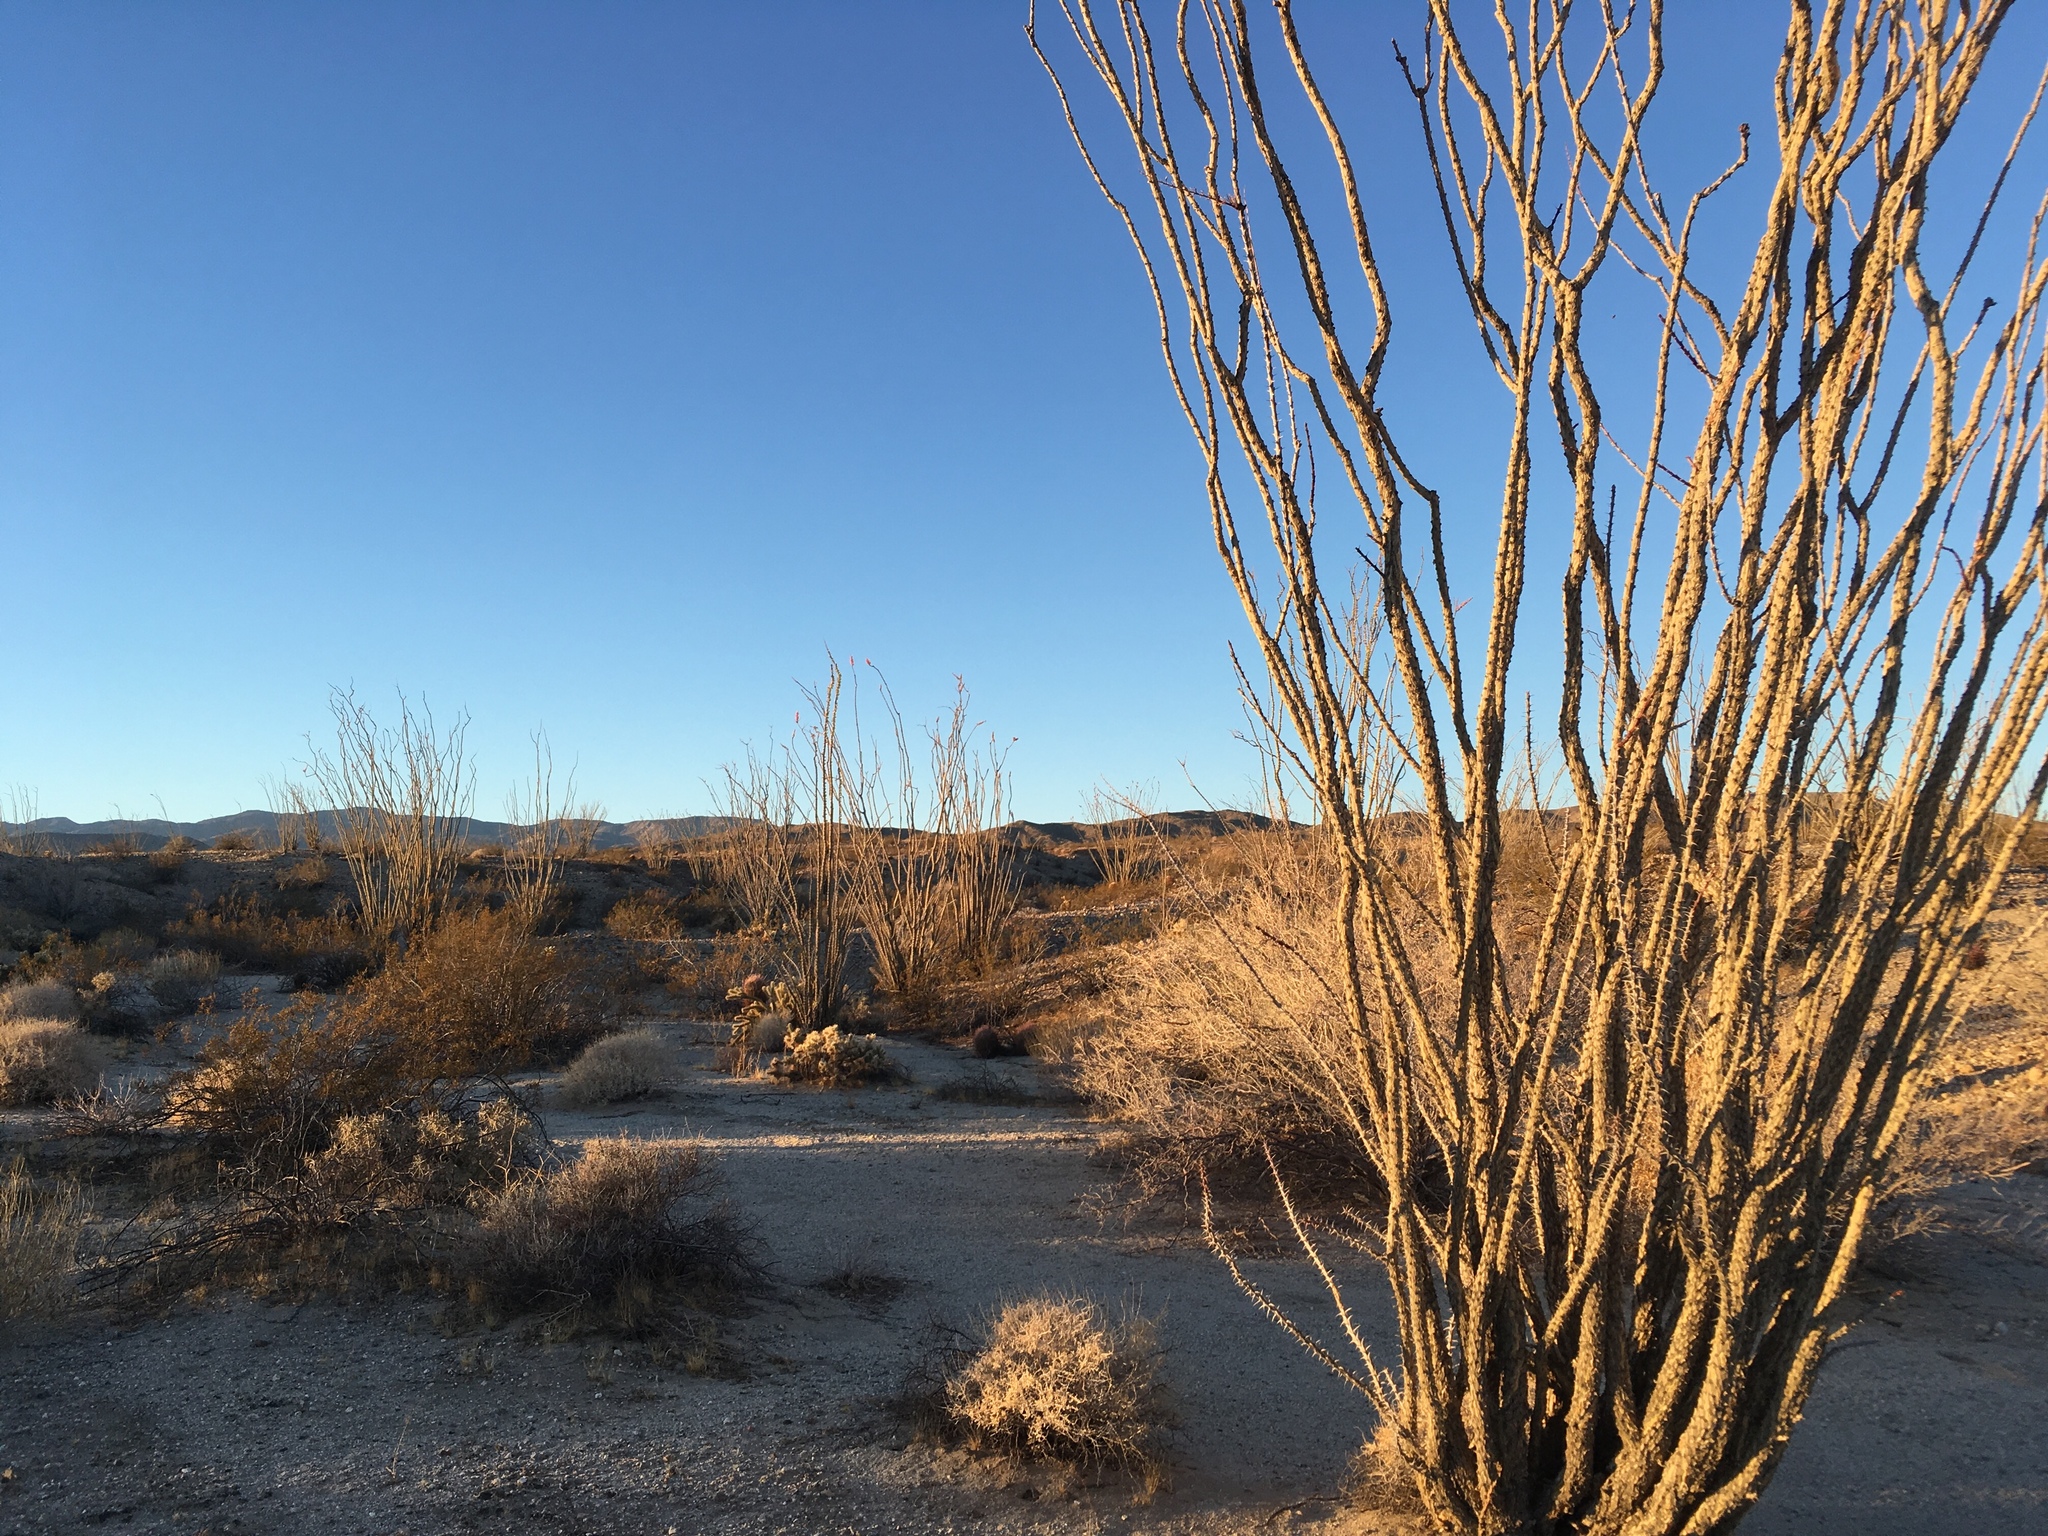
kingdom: Plantae
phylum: Tracheophyta
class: Magnoliopsida
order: Ericales
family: Fouquieriaceae
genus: Fouquieria
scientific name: Fouquieria splendens
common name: Vine-cactus
